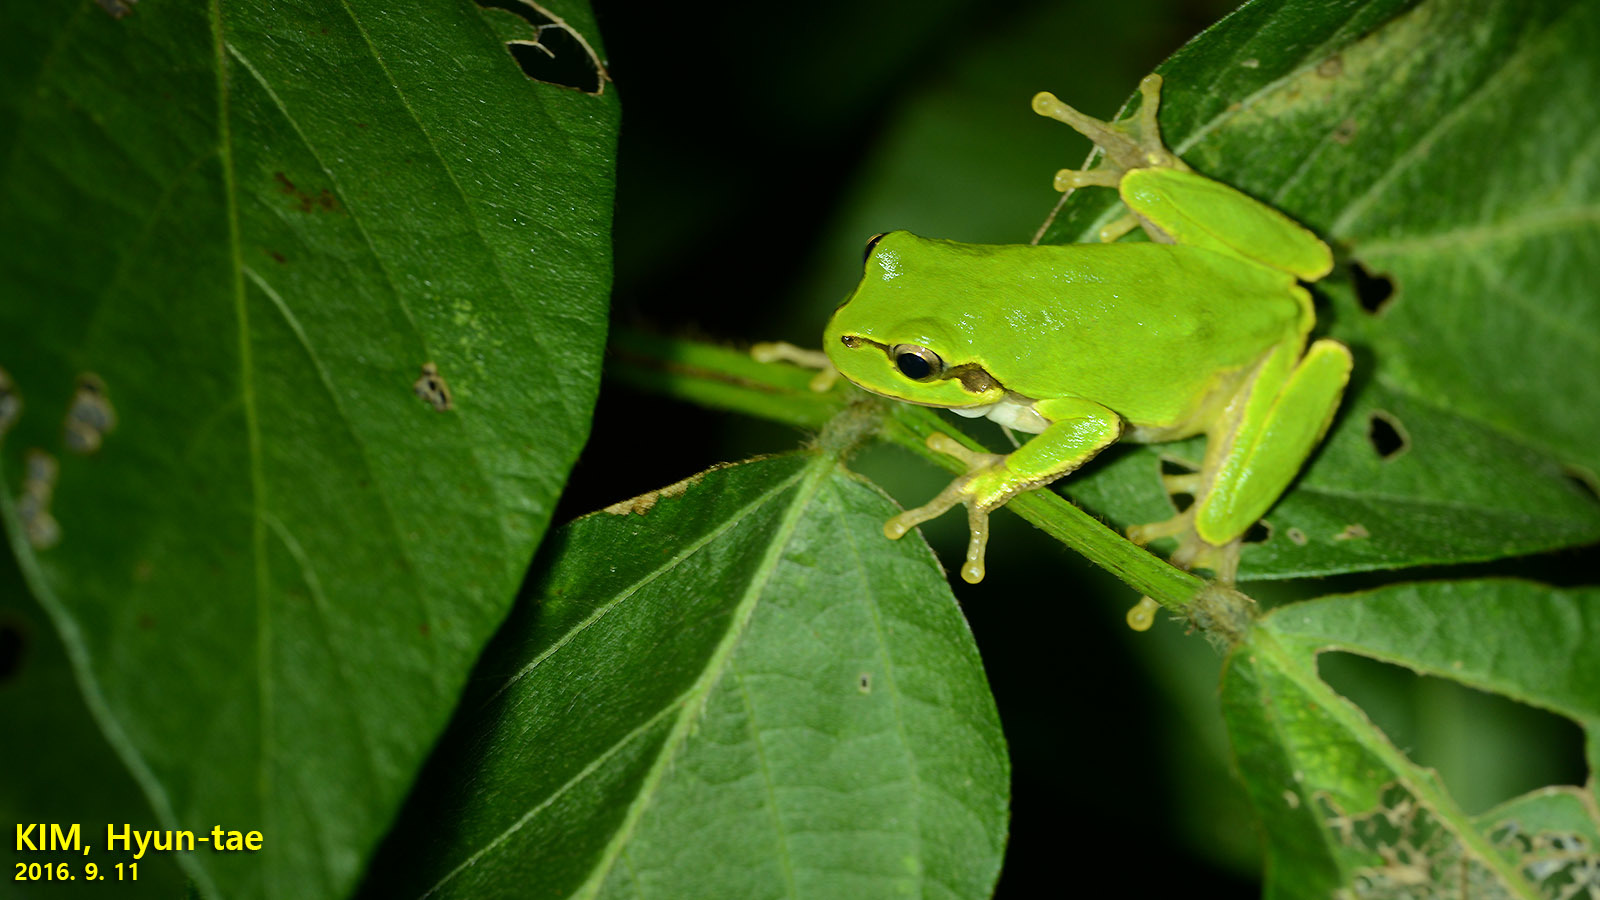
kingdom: Animalia
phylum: Chordata
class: Amphibia
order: Anura
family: Hylidae
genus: Dryophytes
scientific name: Dryophytes japonicus
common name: Japanese treefrog
